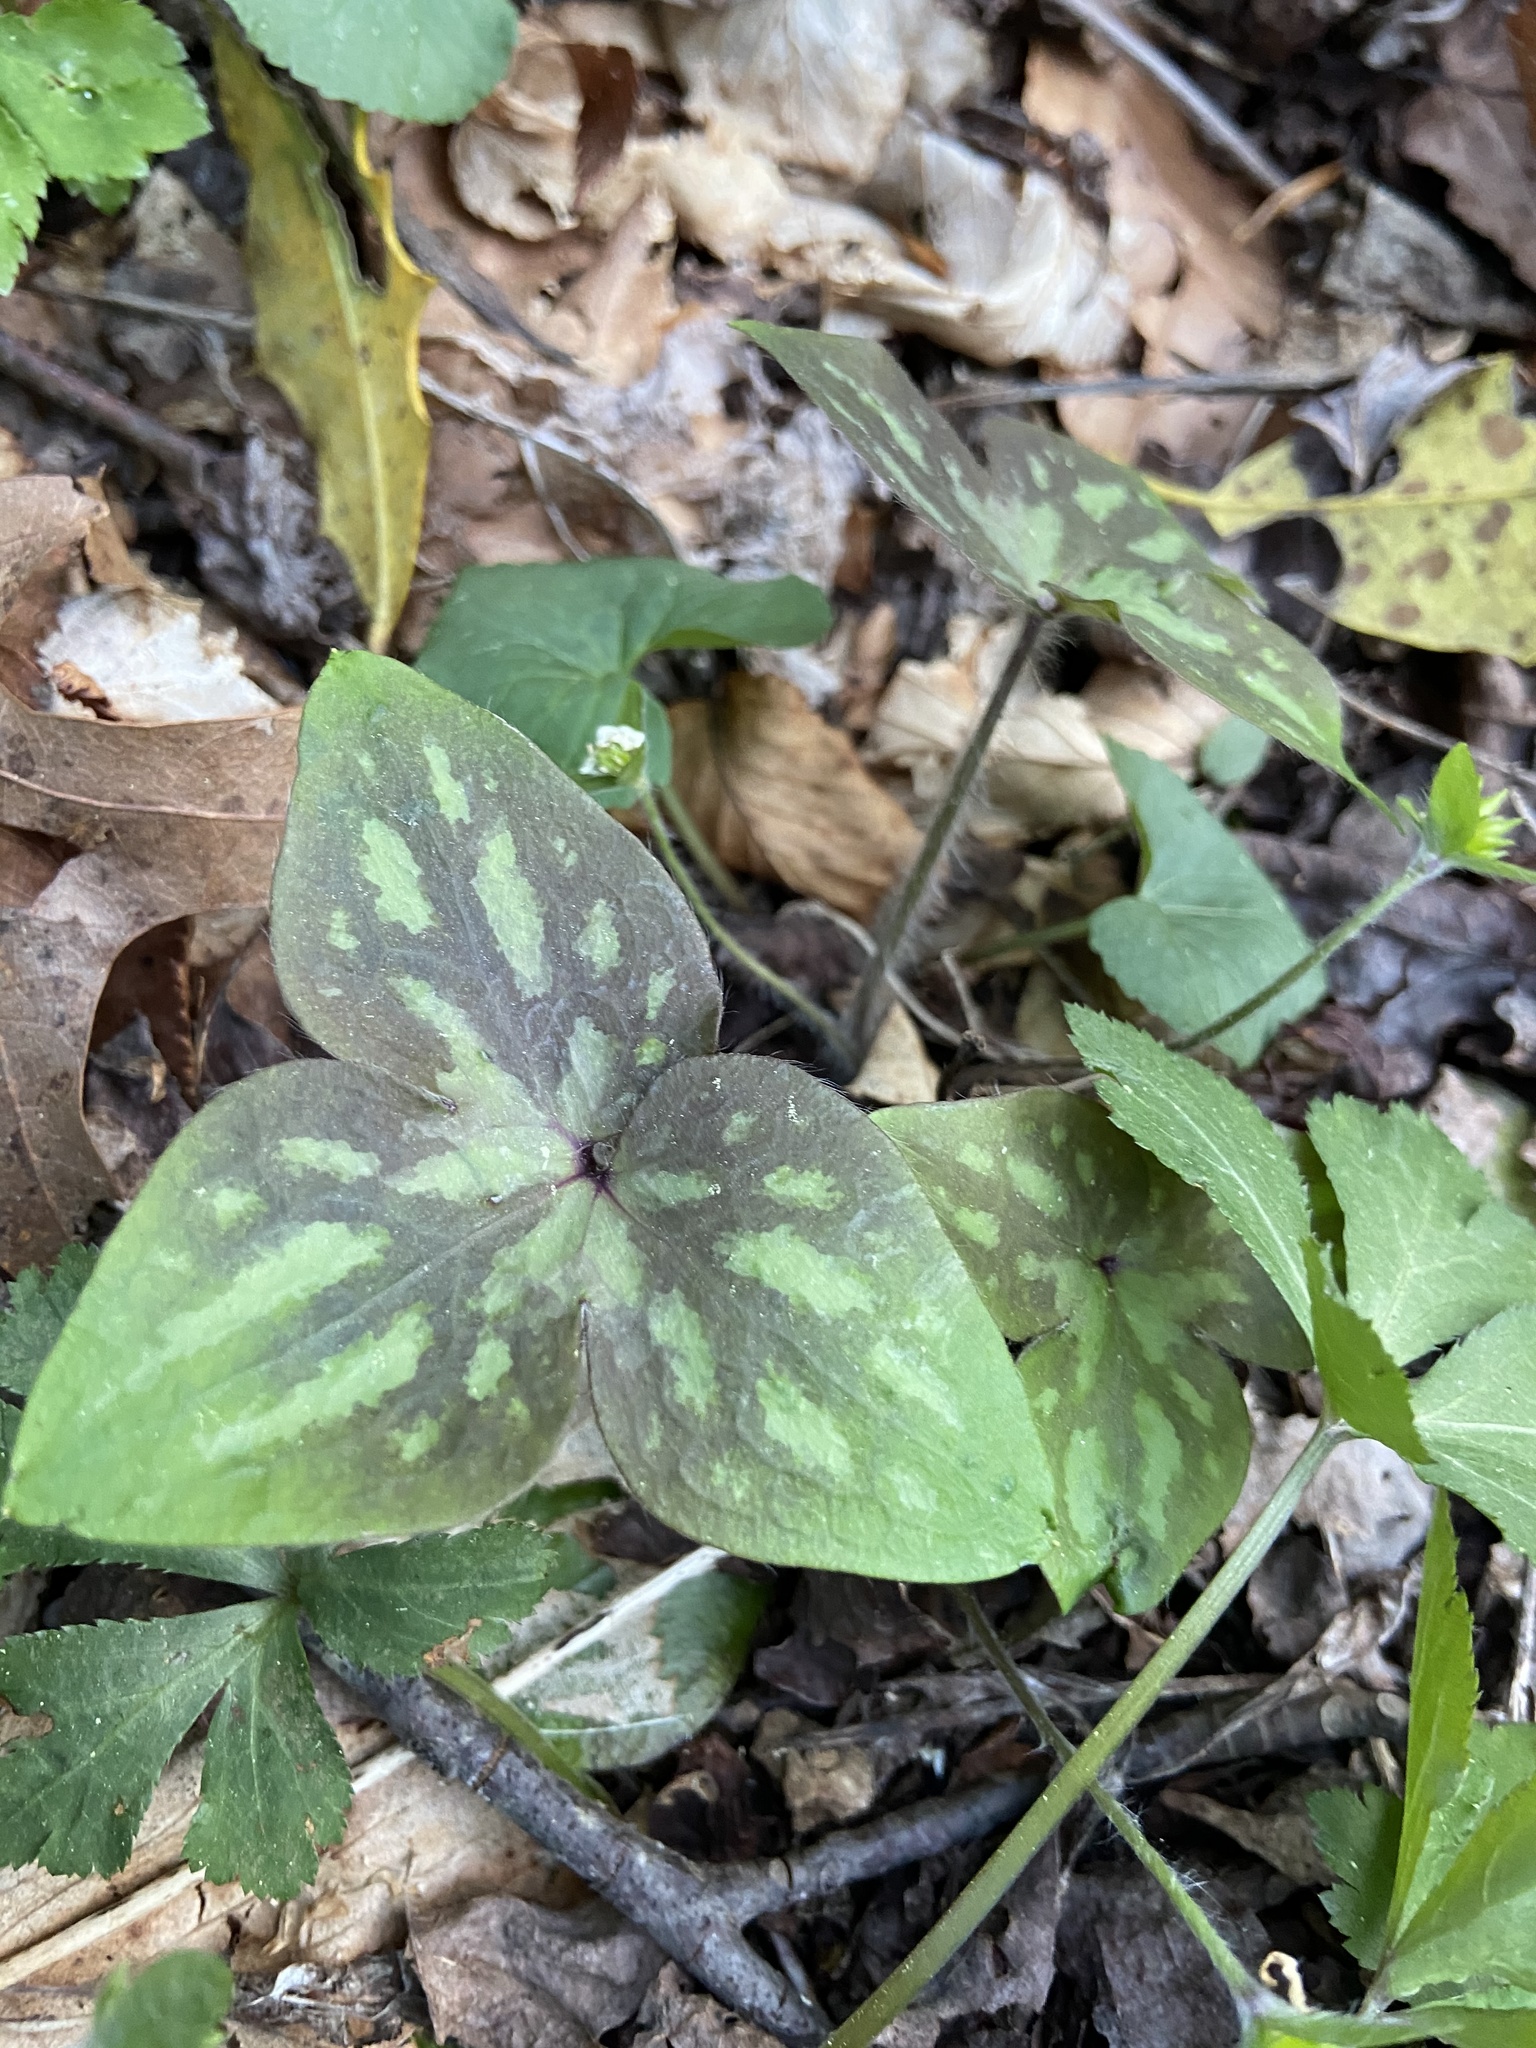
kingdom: Plantae
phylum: Tracheophyta
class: Magnoliopsida
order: Ranunculales
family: Ranunculaceae
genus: Hepatica
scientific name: Hepatica acutiloba
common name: Sharp-lobed hepatica
